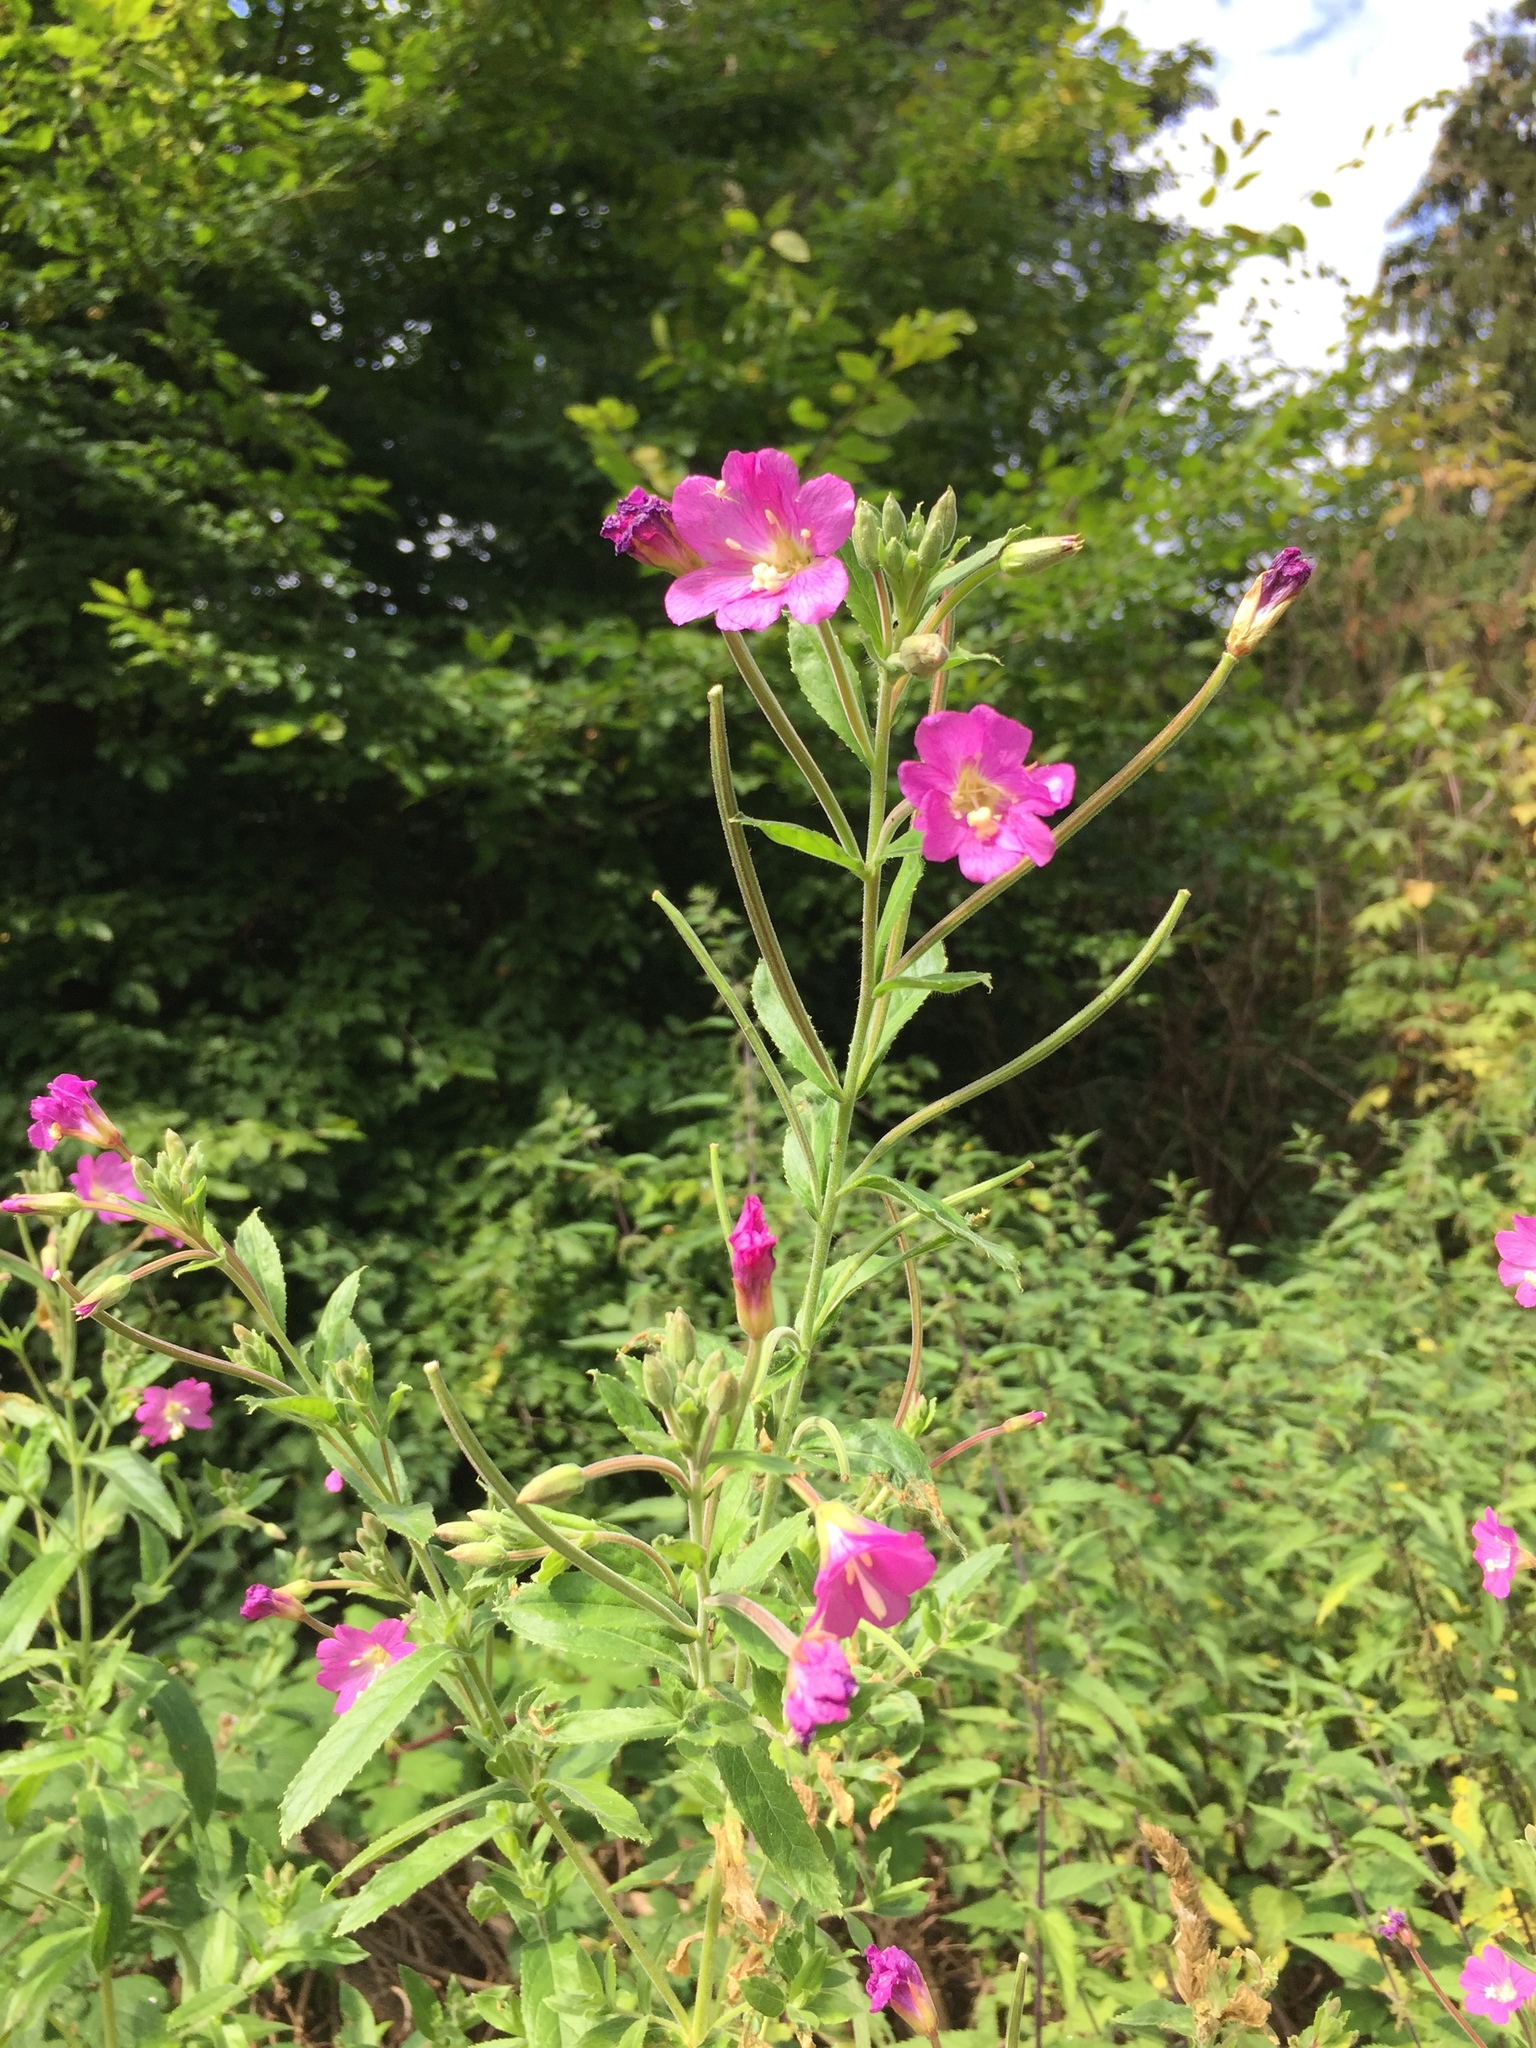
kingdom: Plantae
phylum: Tracheophyta
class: Magnoliopsida
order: Myrtales
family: Onagraceae
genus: Epilobium
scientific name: Epilobium hirsutum
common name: Great willowherb
